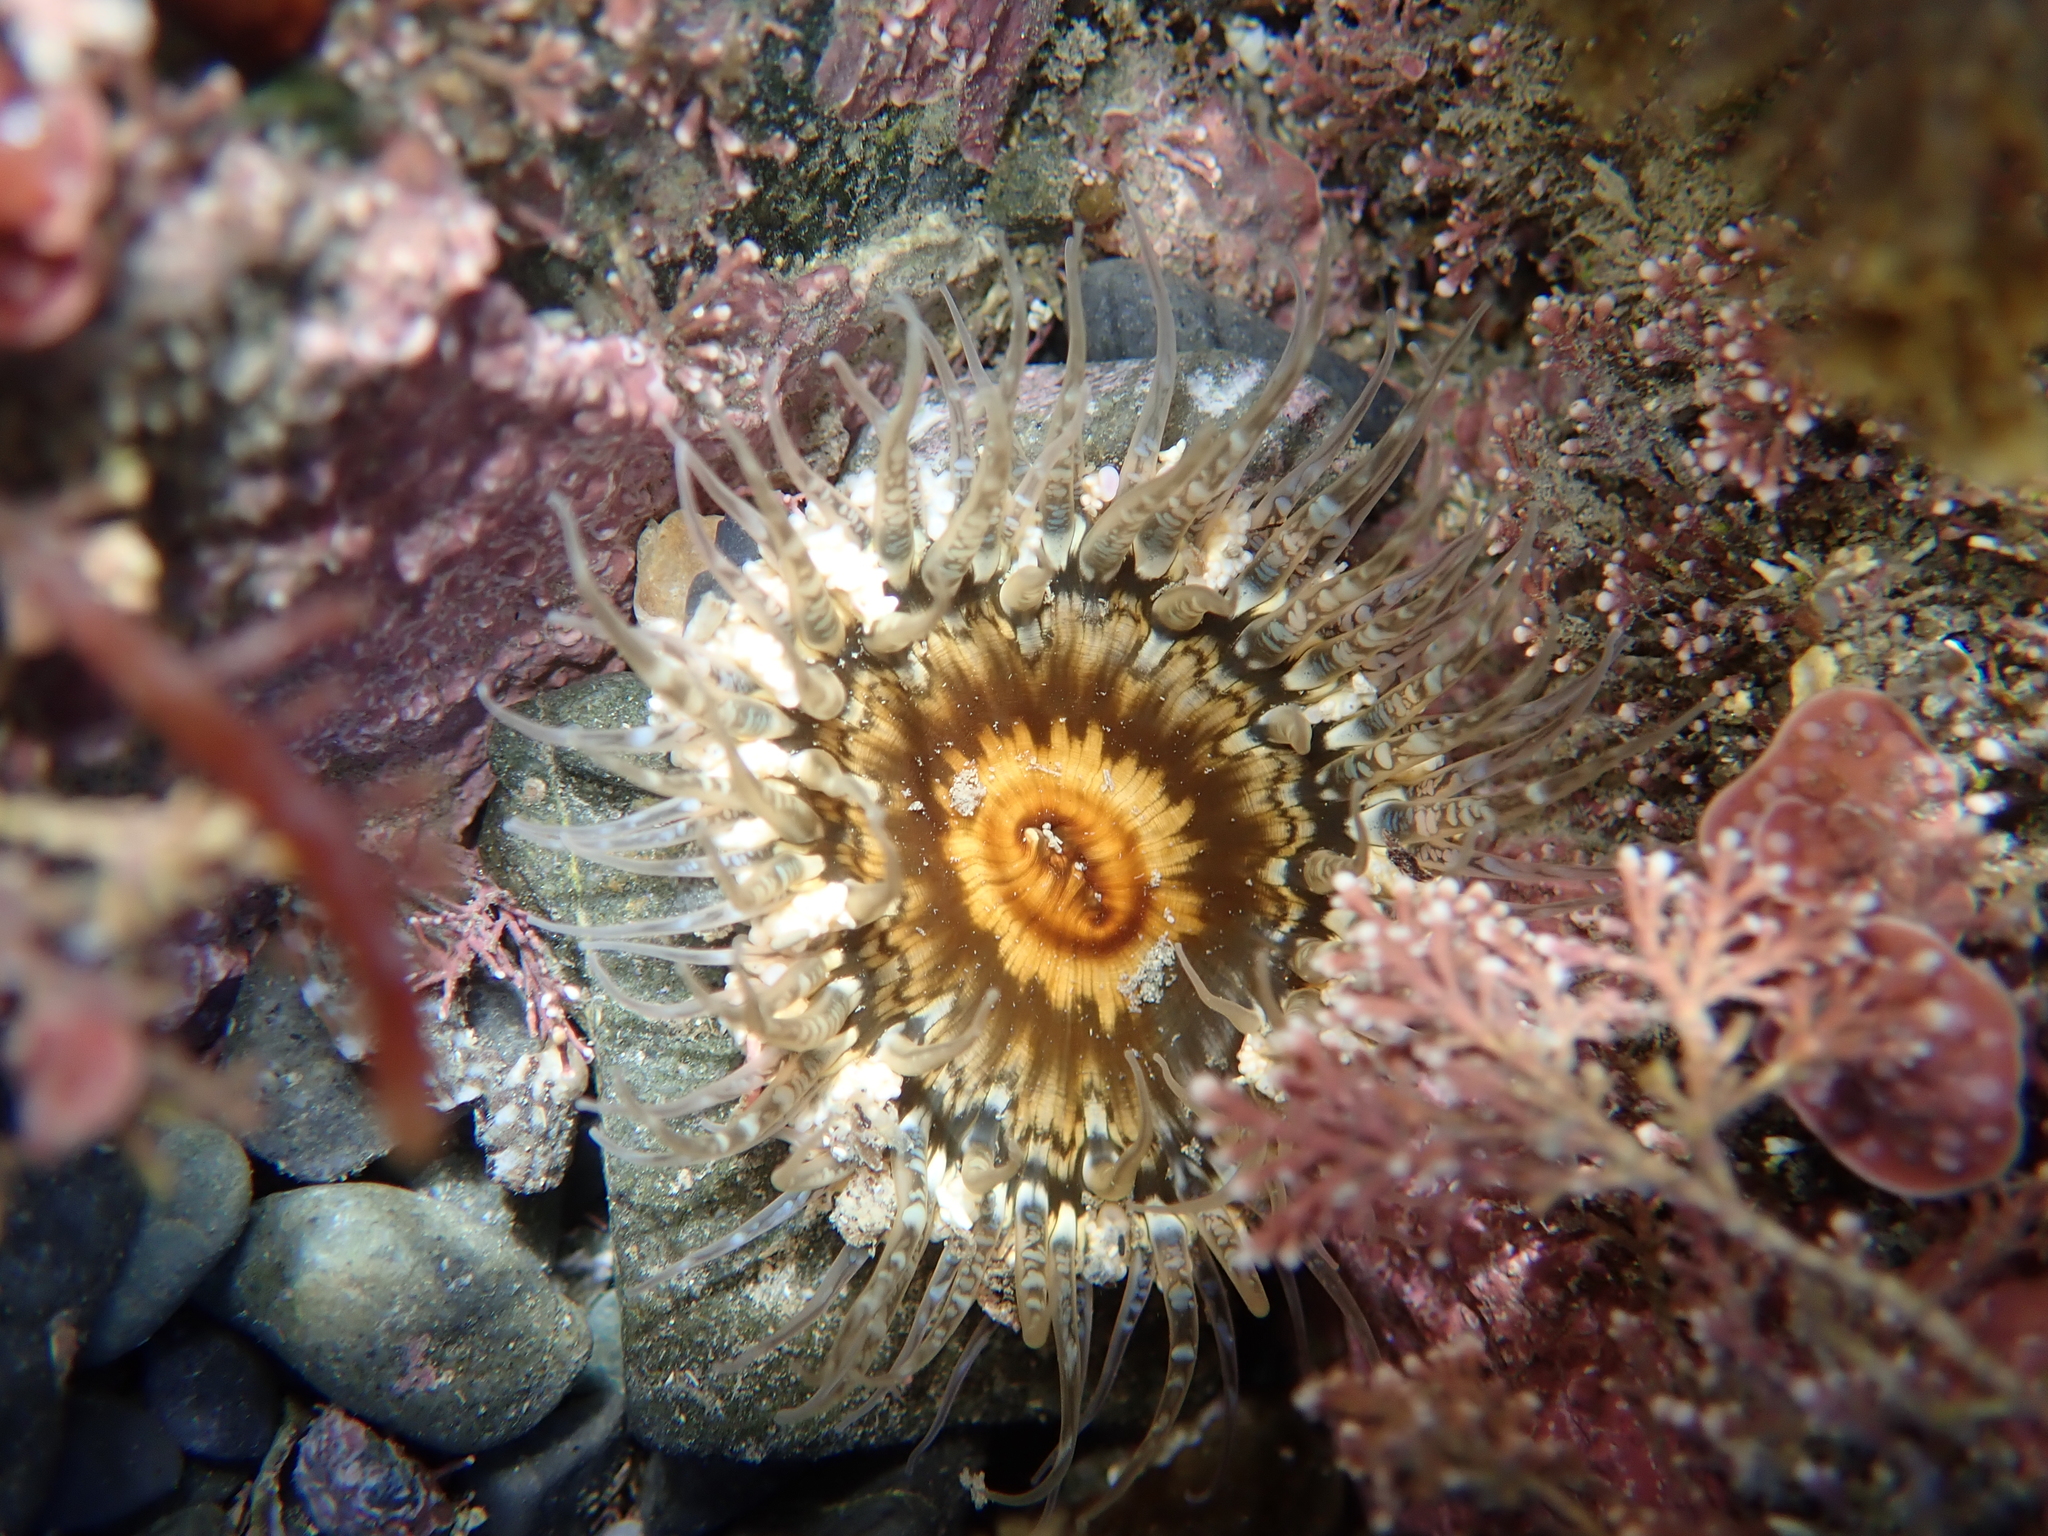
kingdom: Animalia
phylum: Cnidaria
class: Anthozoa
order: Actiniaria
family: Actiniidae
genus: Oulactis
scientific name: Oulactis muscosa
